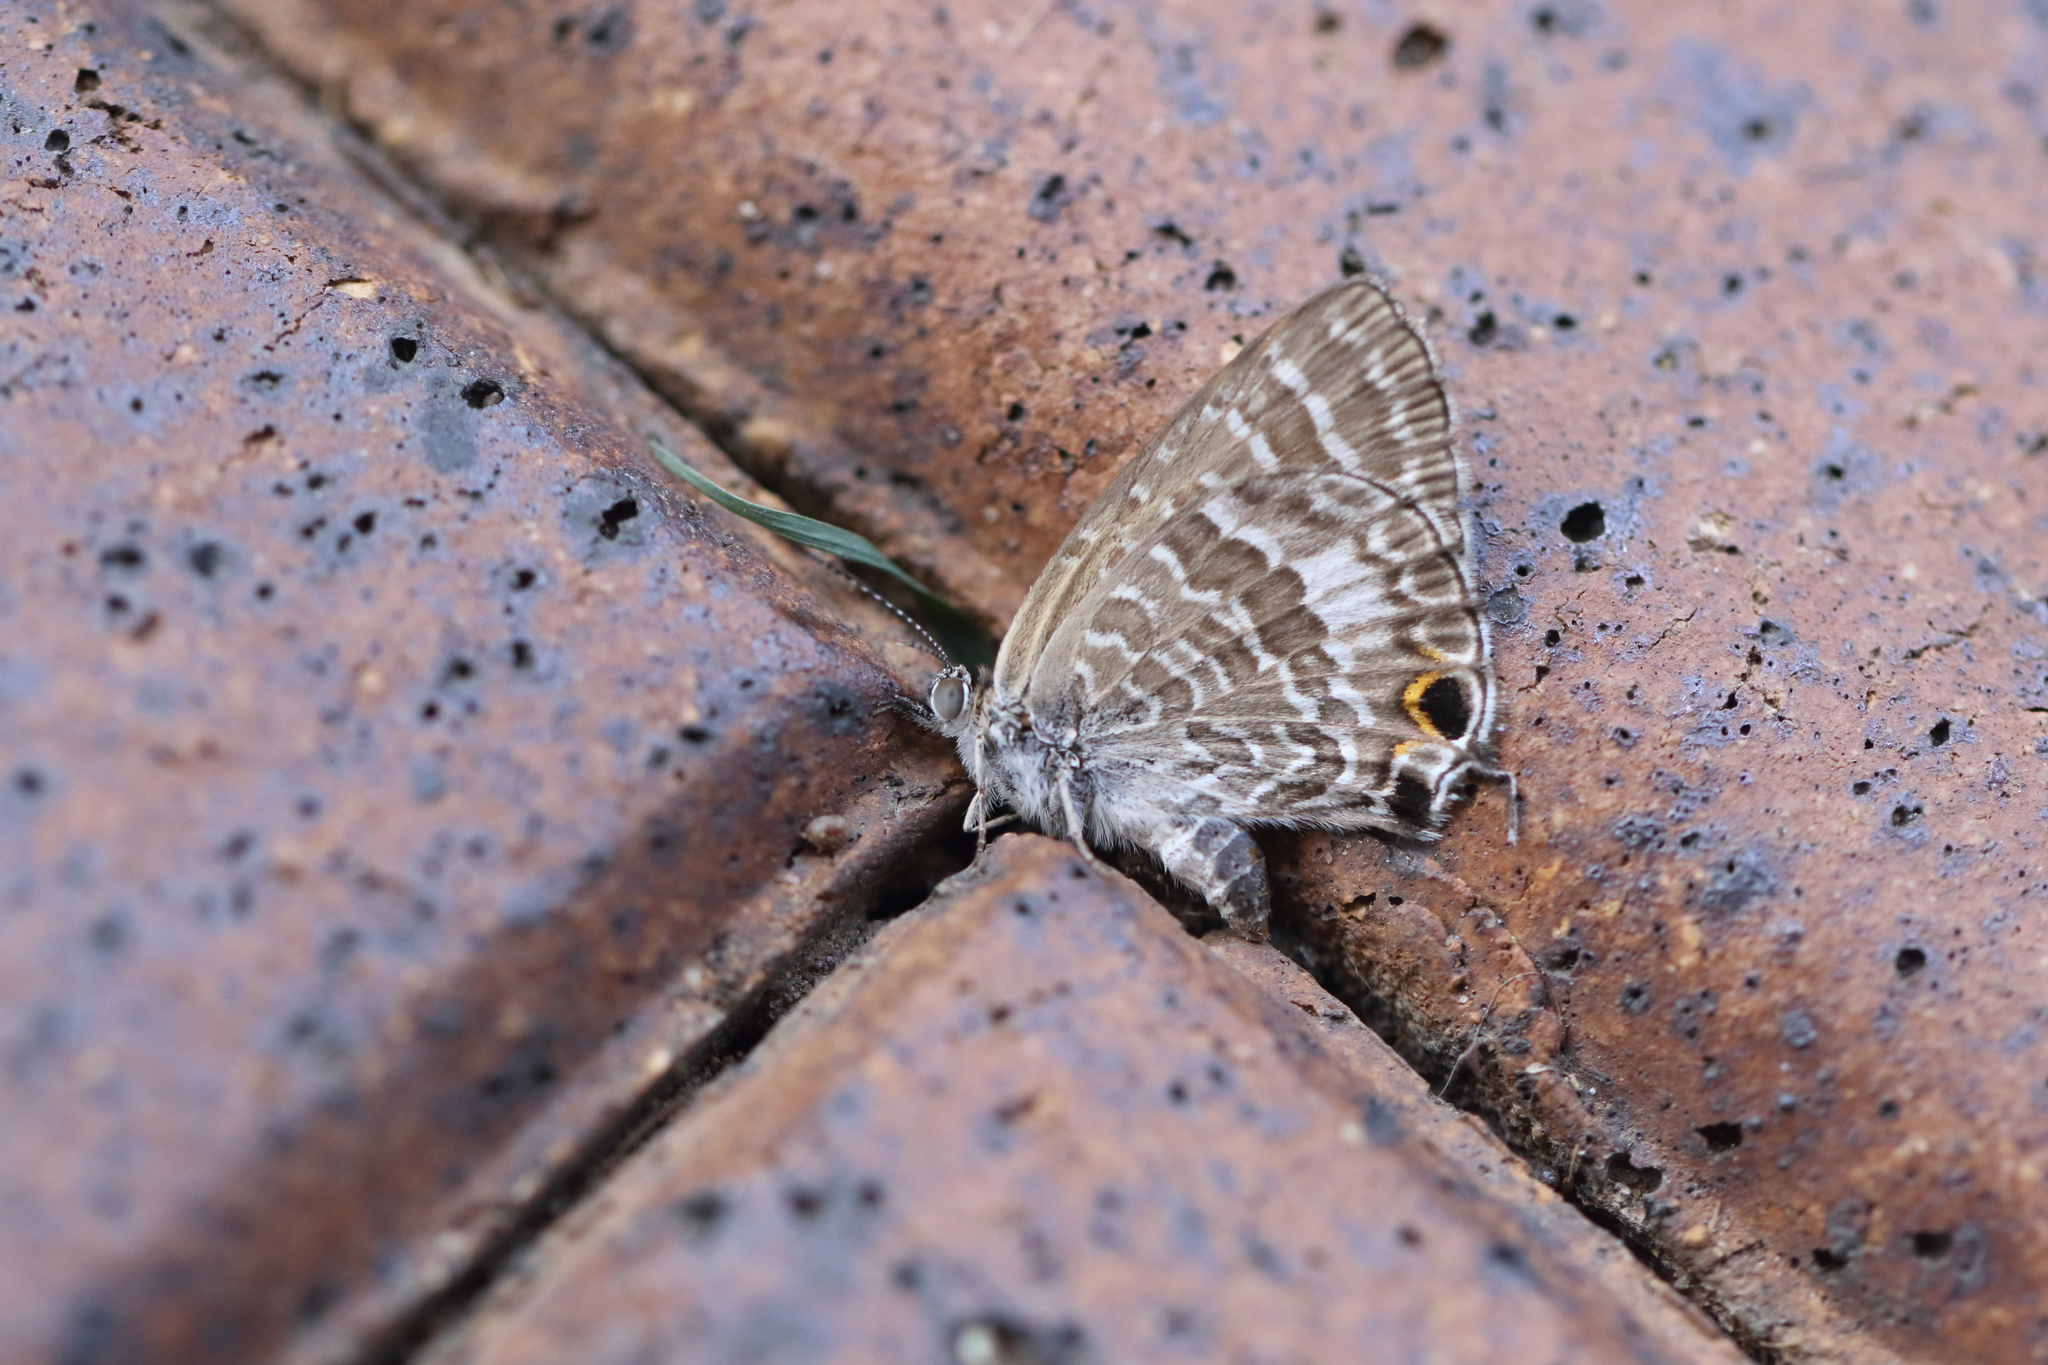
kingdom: Animalia
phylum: Arthropoda
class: Insecta
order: Lepidoptera
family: Lycaenidae
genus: Theclinesthes
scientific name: Theclinesthes onycha
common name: Cycad blue
